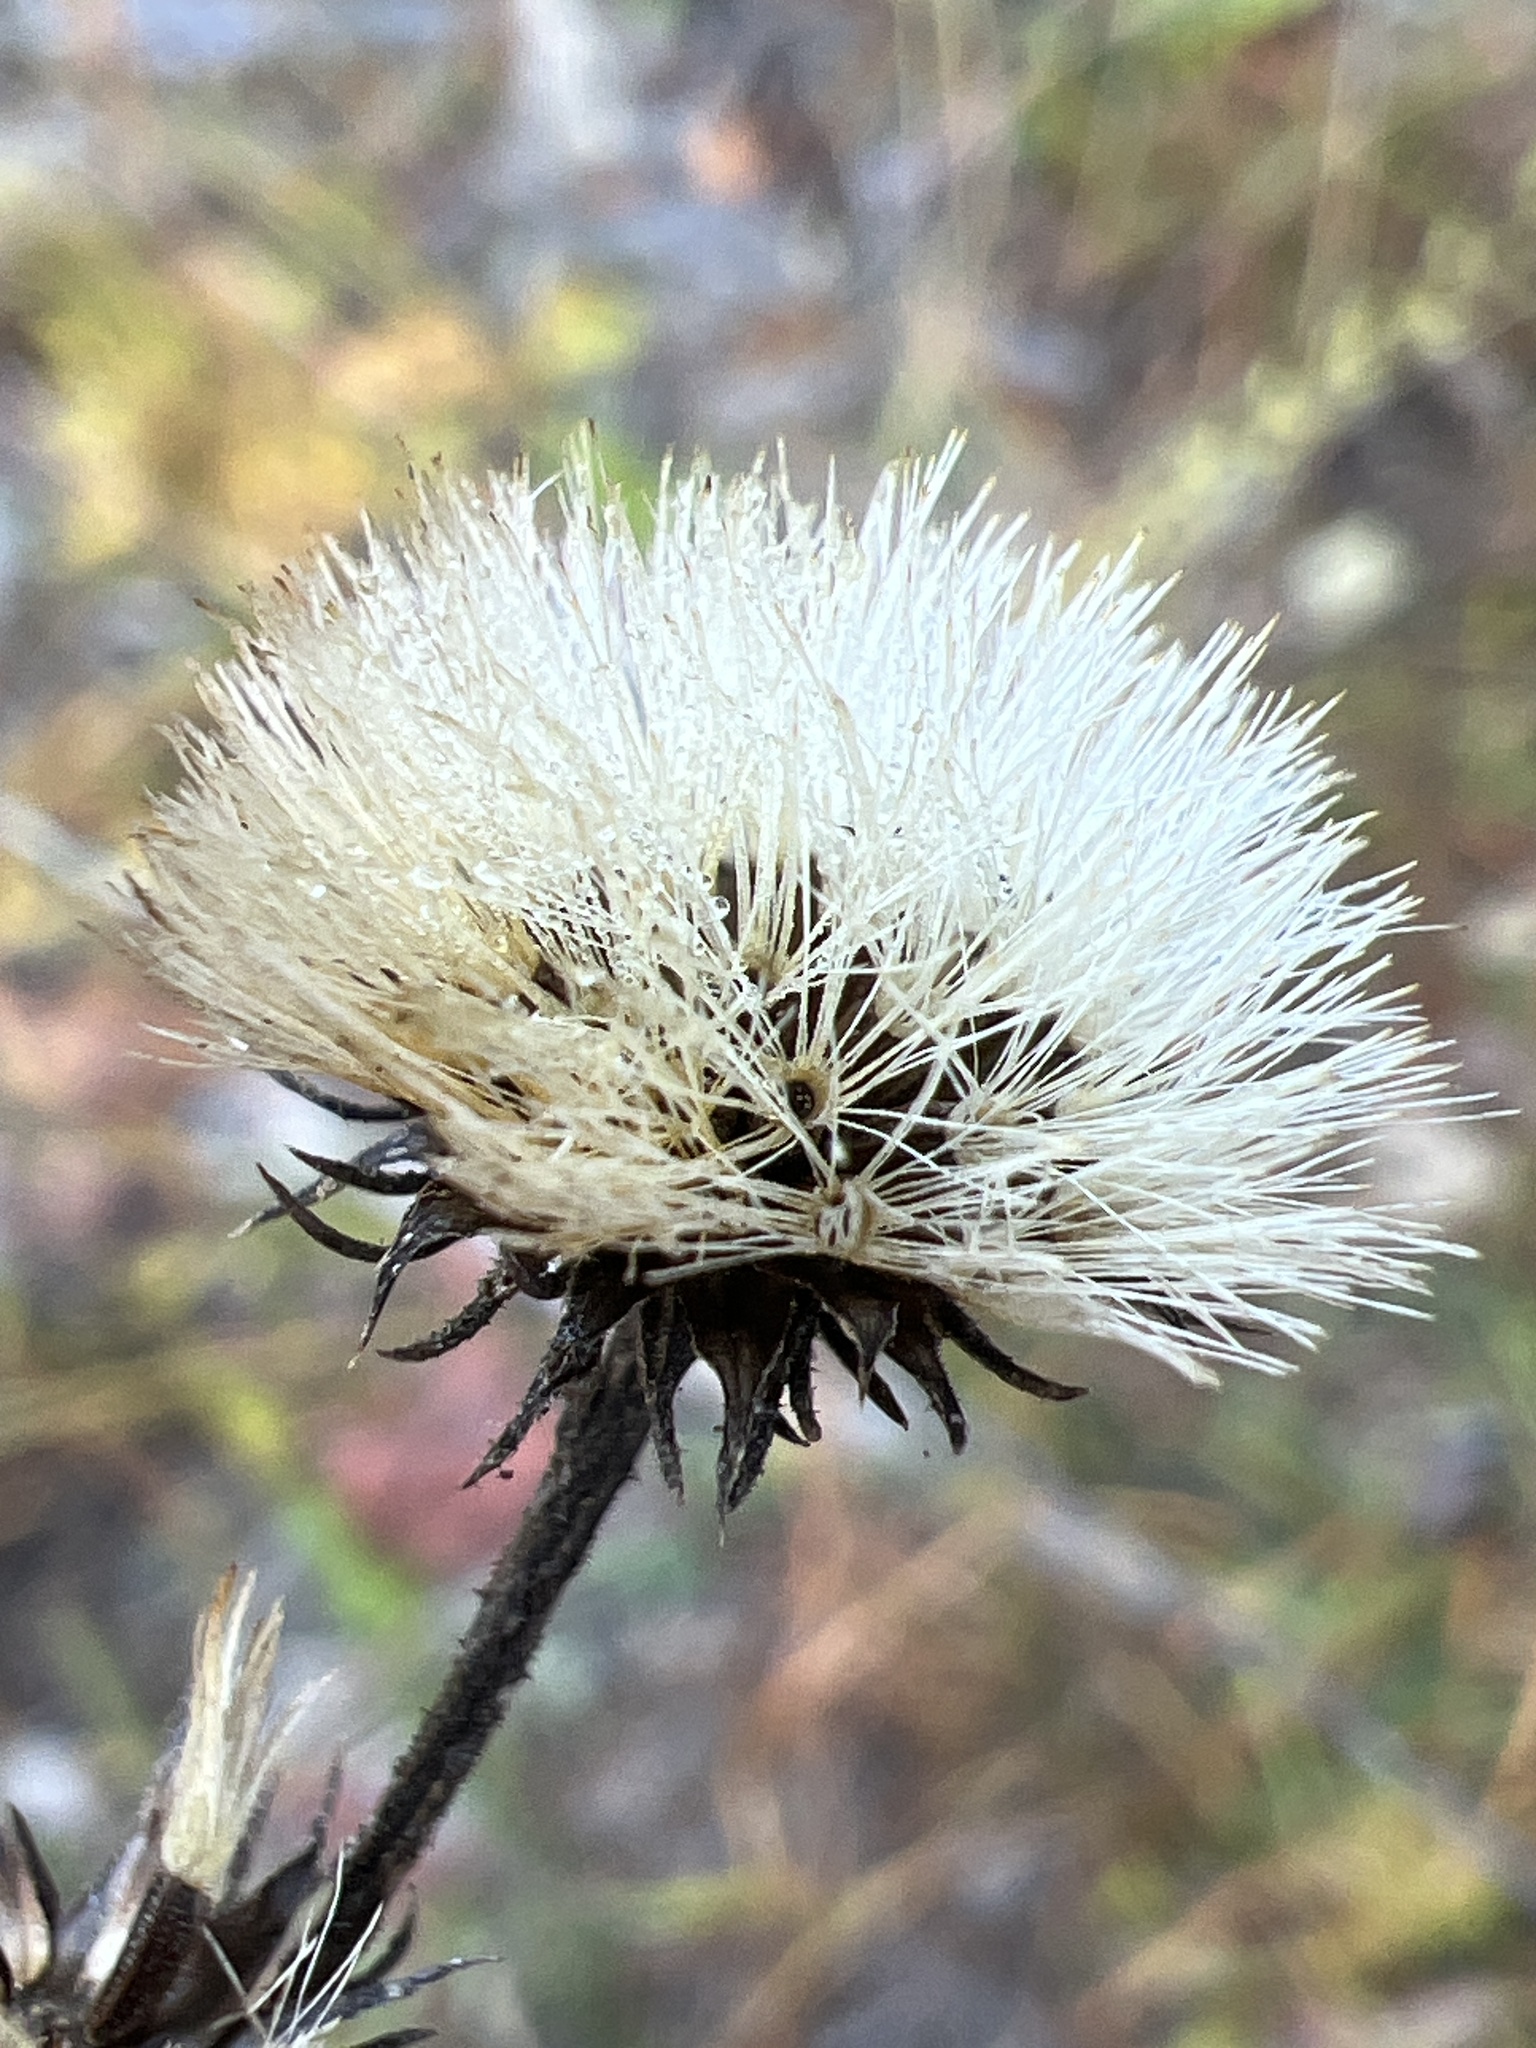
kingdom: Plantae
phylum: Tracheophyta
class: Magnoliopsida
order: Asterales
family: Asteraceae
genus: Vernonia
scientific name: Vernonia acaulis
